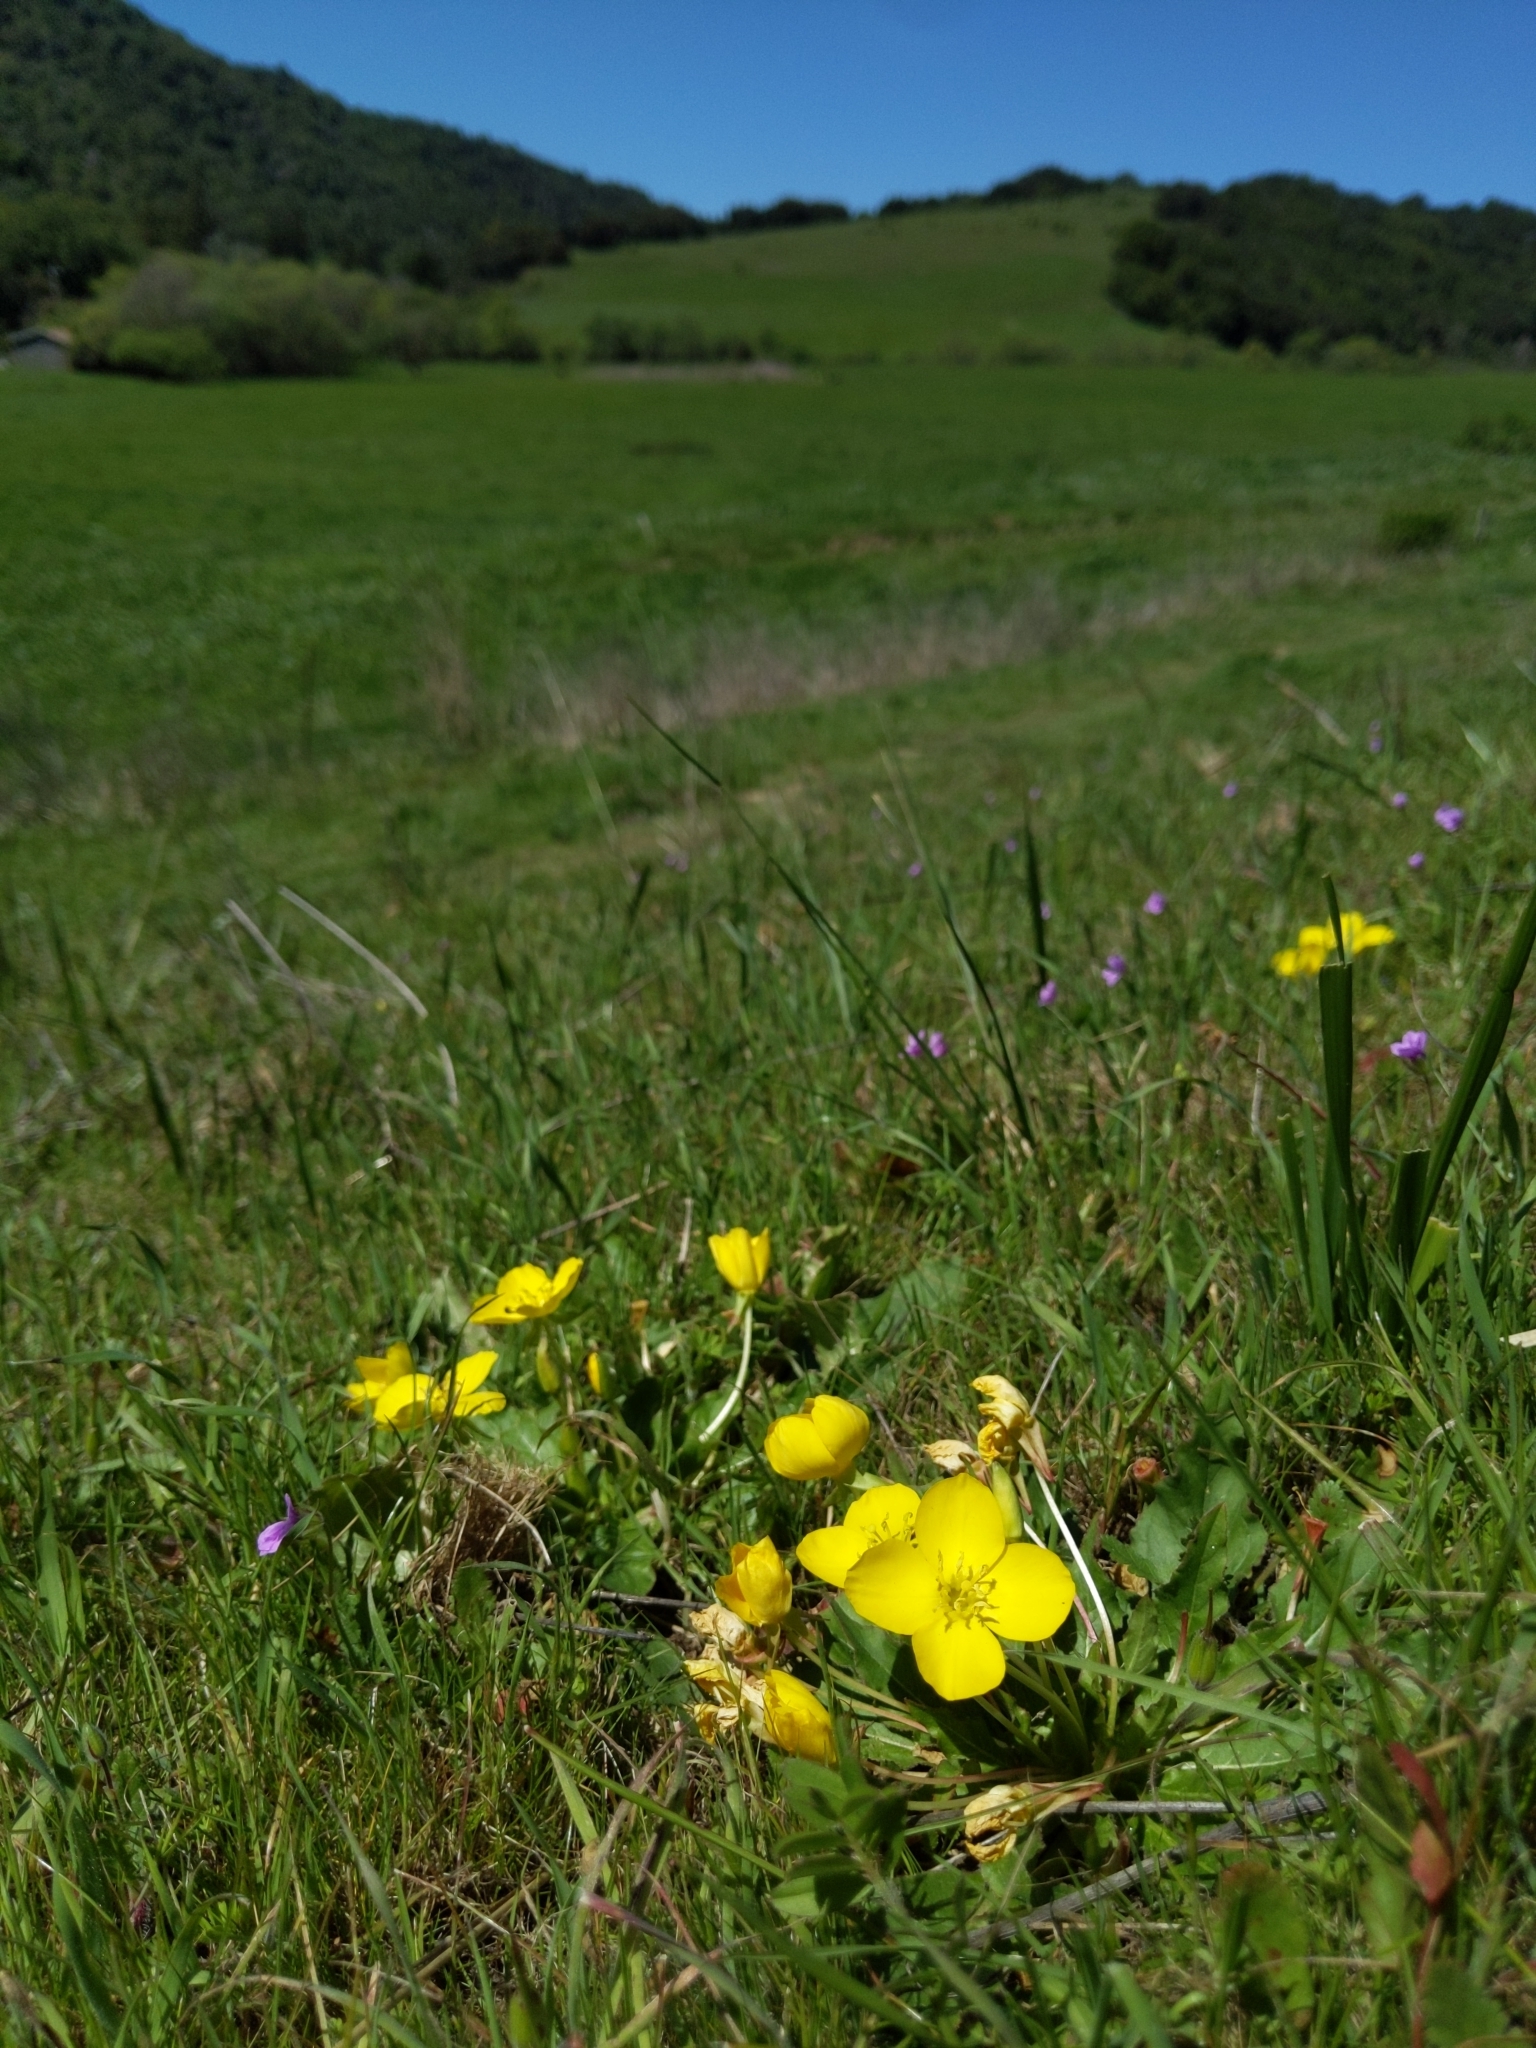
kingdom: Plantae
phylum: Tracheophyta
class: Magnoliopsida
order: Myrtales
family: Onagraceae
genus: Taraxia
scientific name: Taraxia ovata
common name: Goldeneggs
